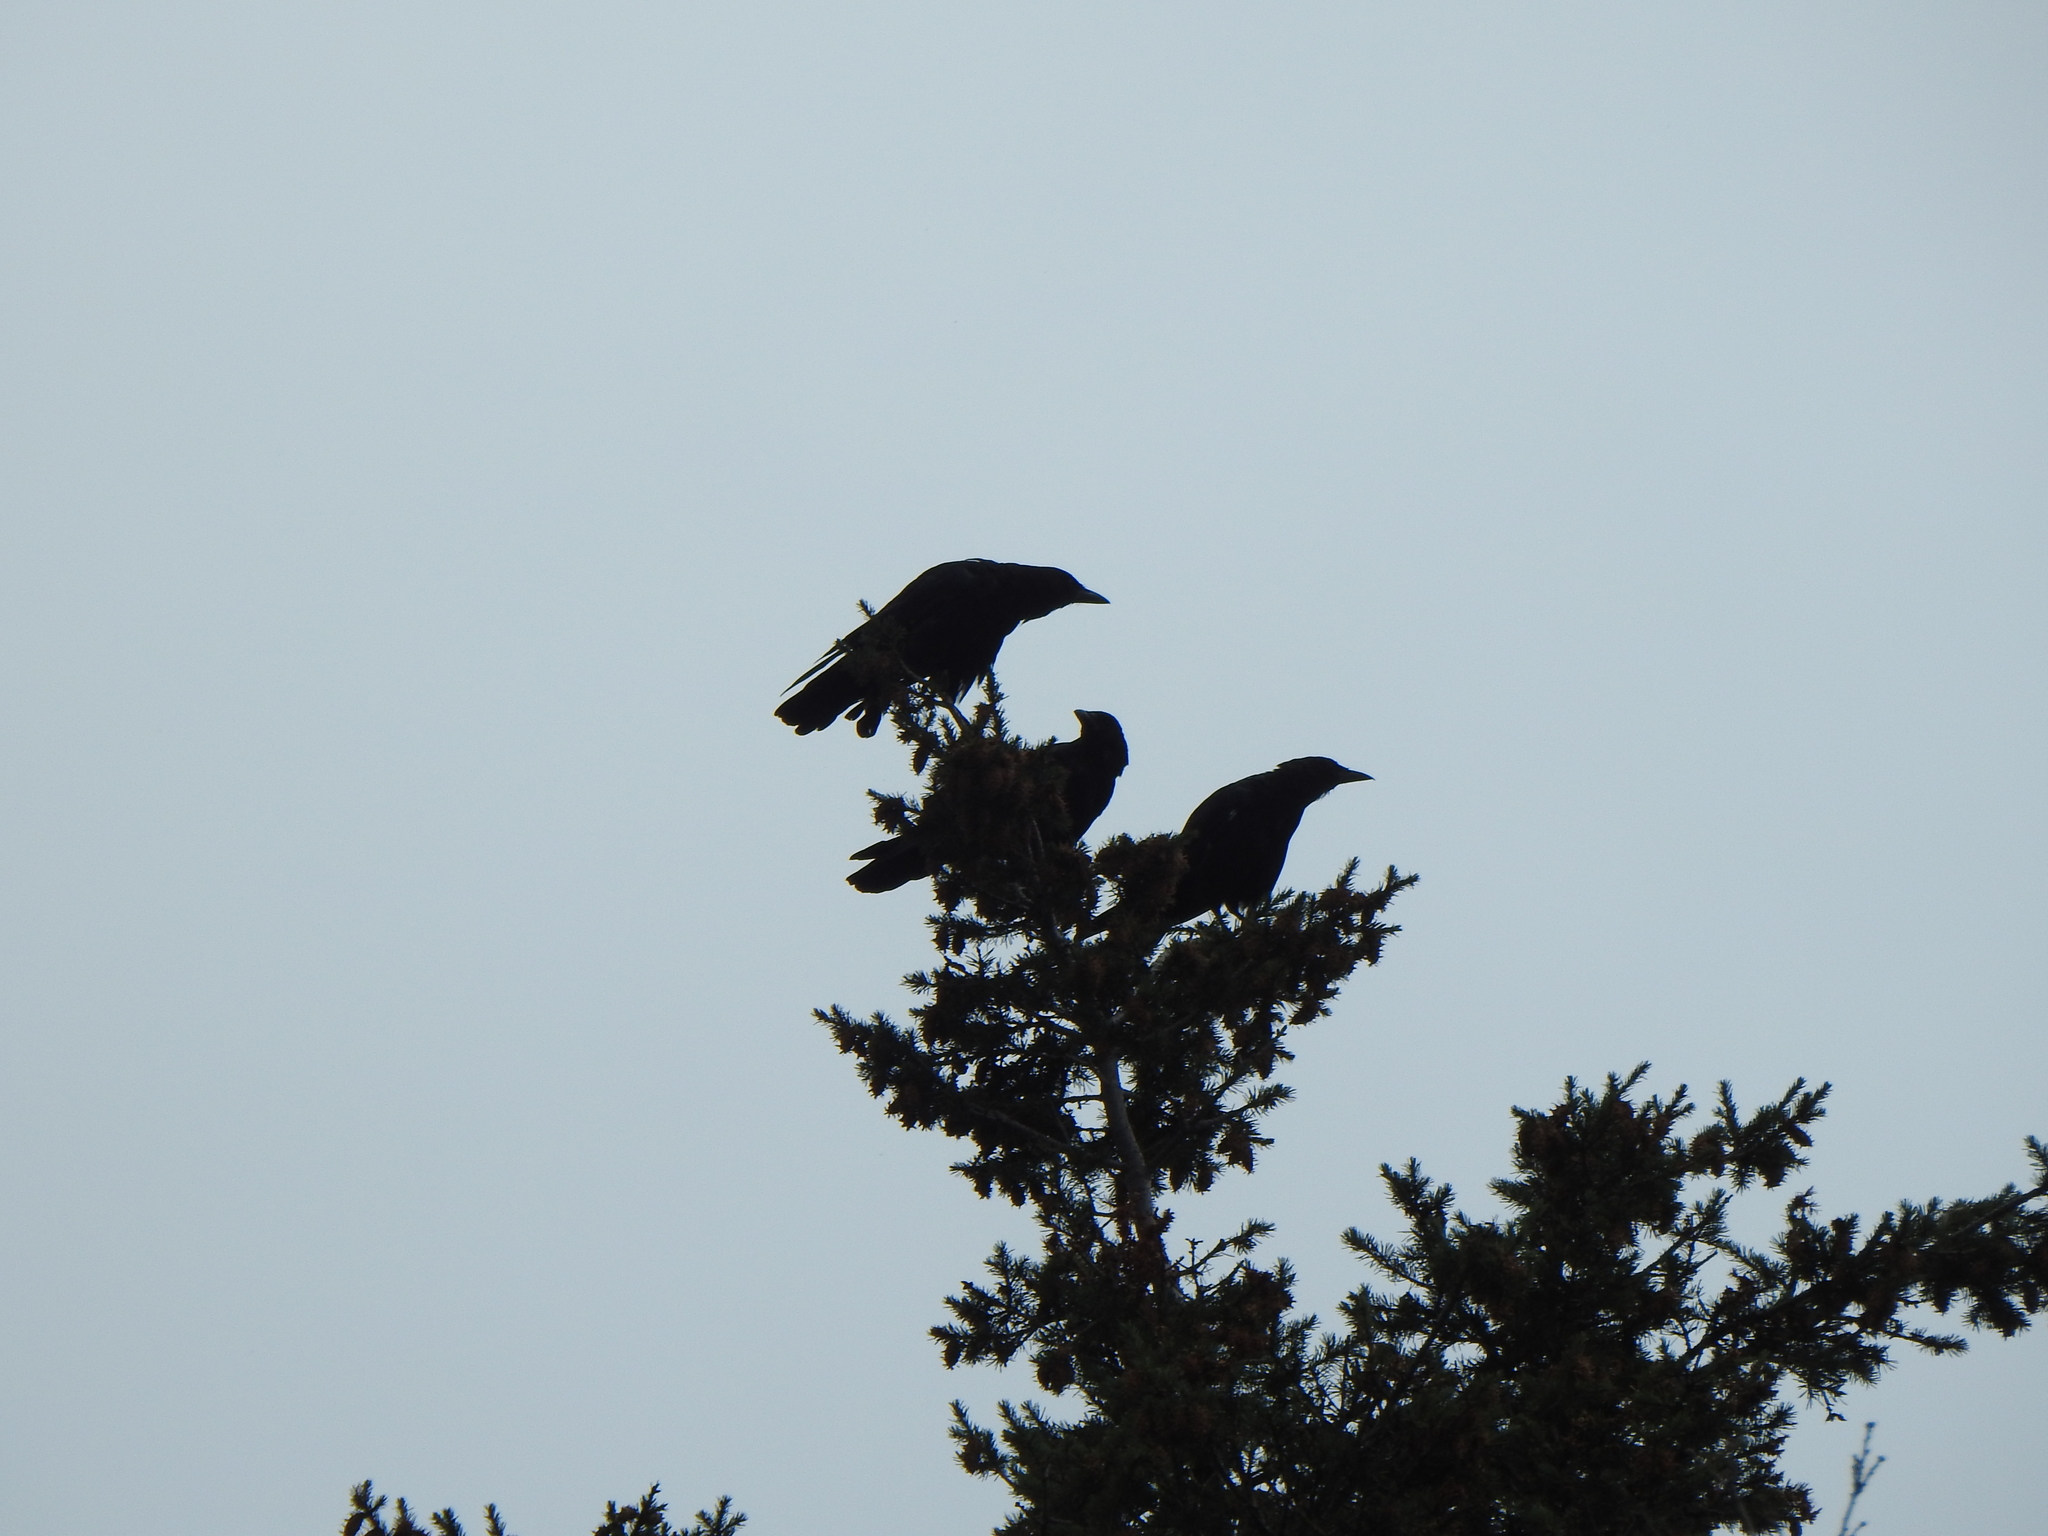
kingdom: Animalia
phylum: Chordata
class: Aves
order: Passeriformes
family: Corvidae
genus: Corvus
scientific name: Corvus brachyrhynchos
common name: American crow
